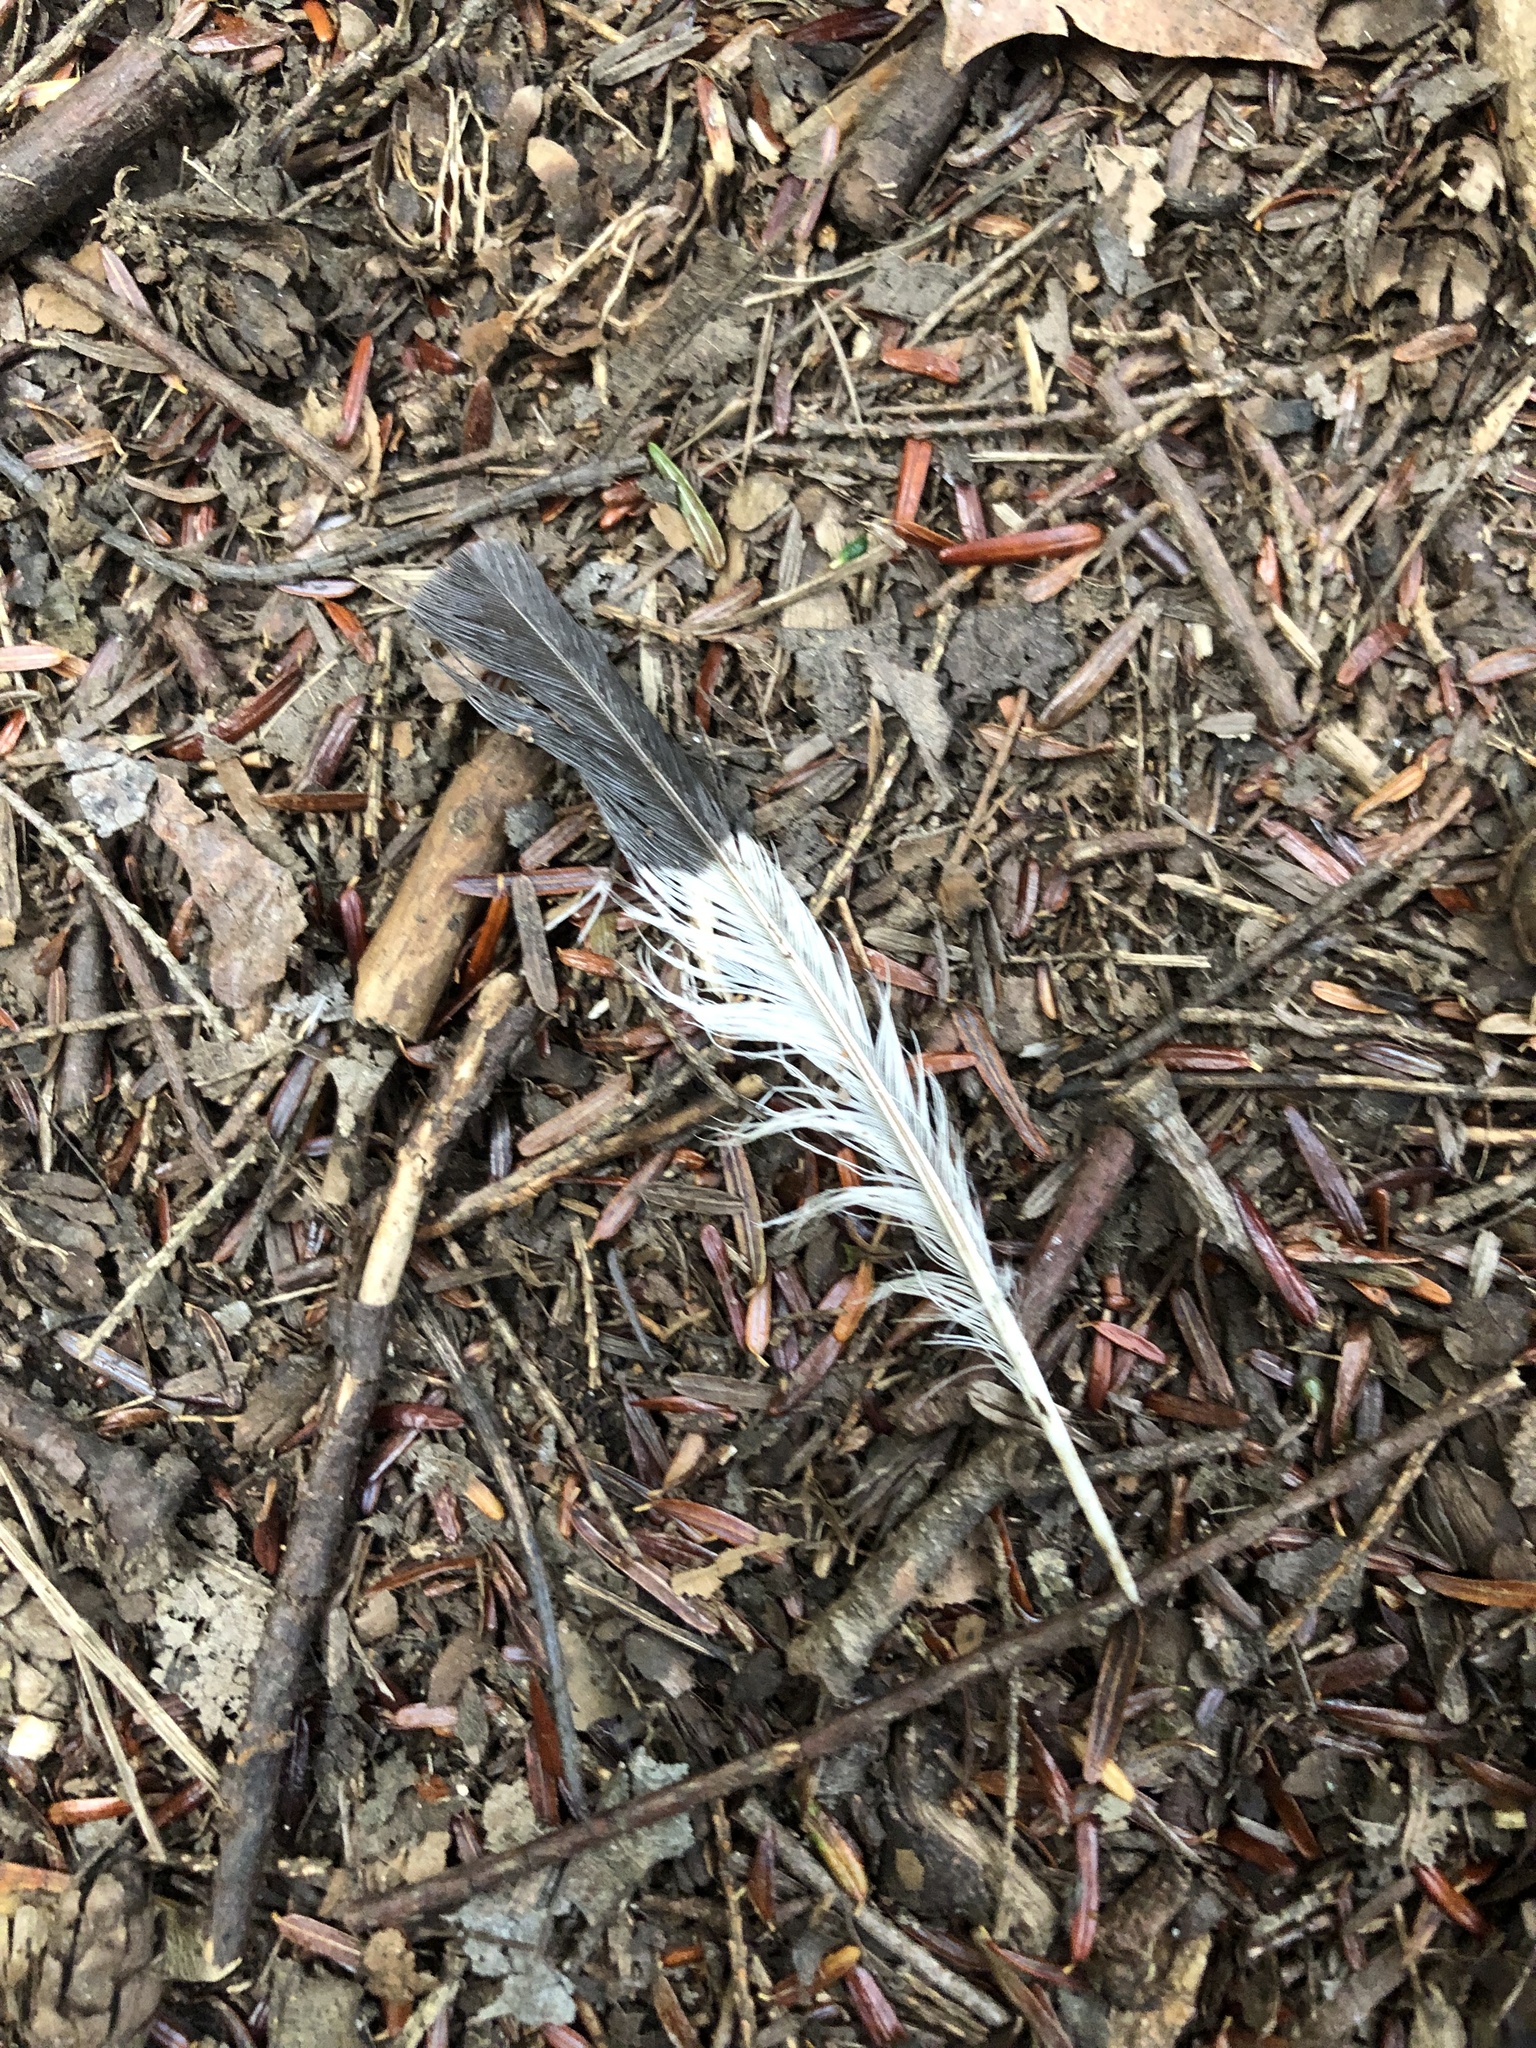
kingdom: Animalia
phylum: Chordata
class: Aves
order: Piciformes
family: Picidae
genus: Dryocopus
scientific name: Dryocopus pileatus
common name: Pileated woodpecker
